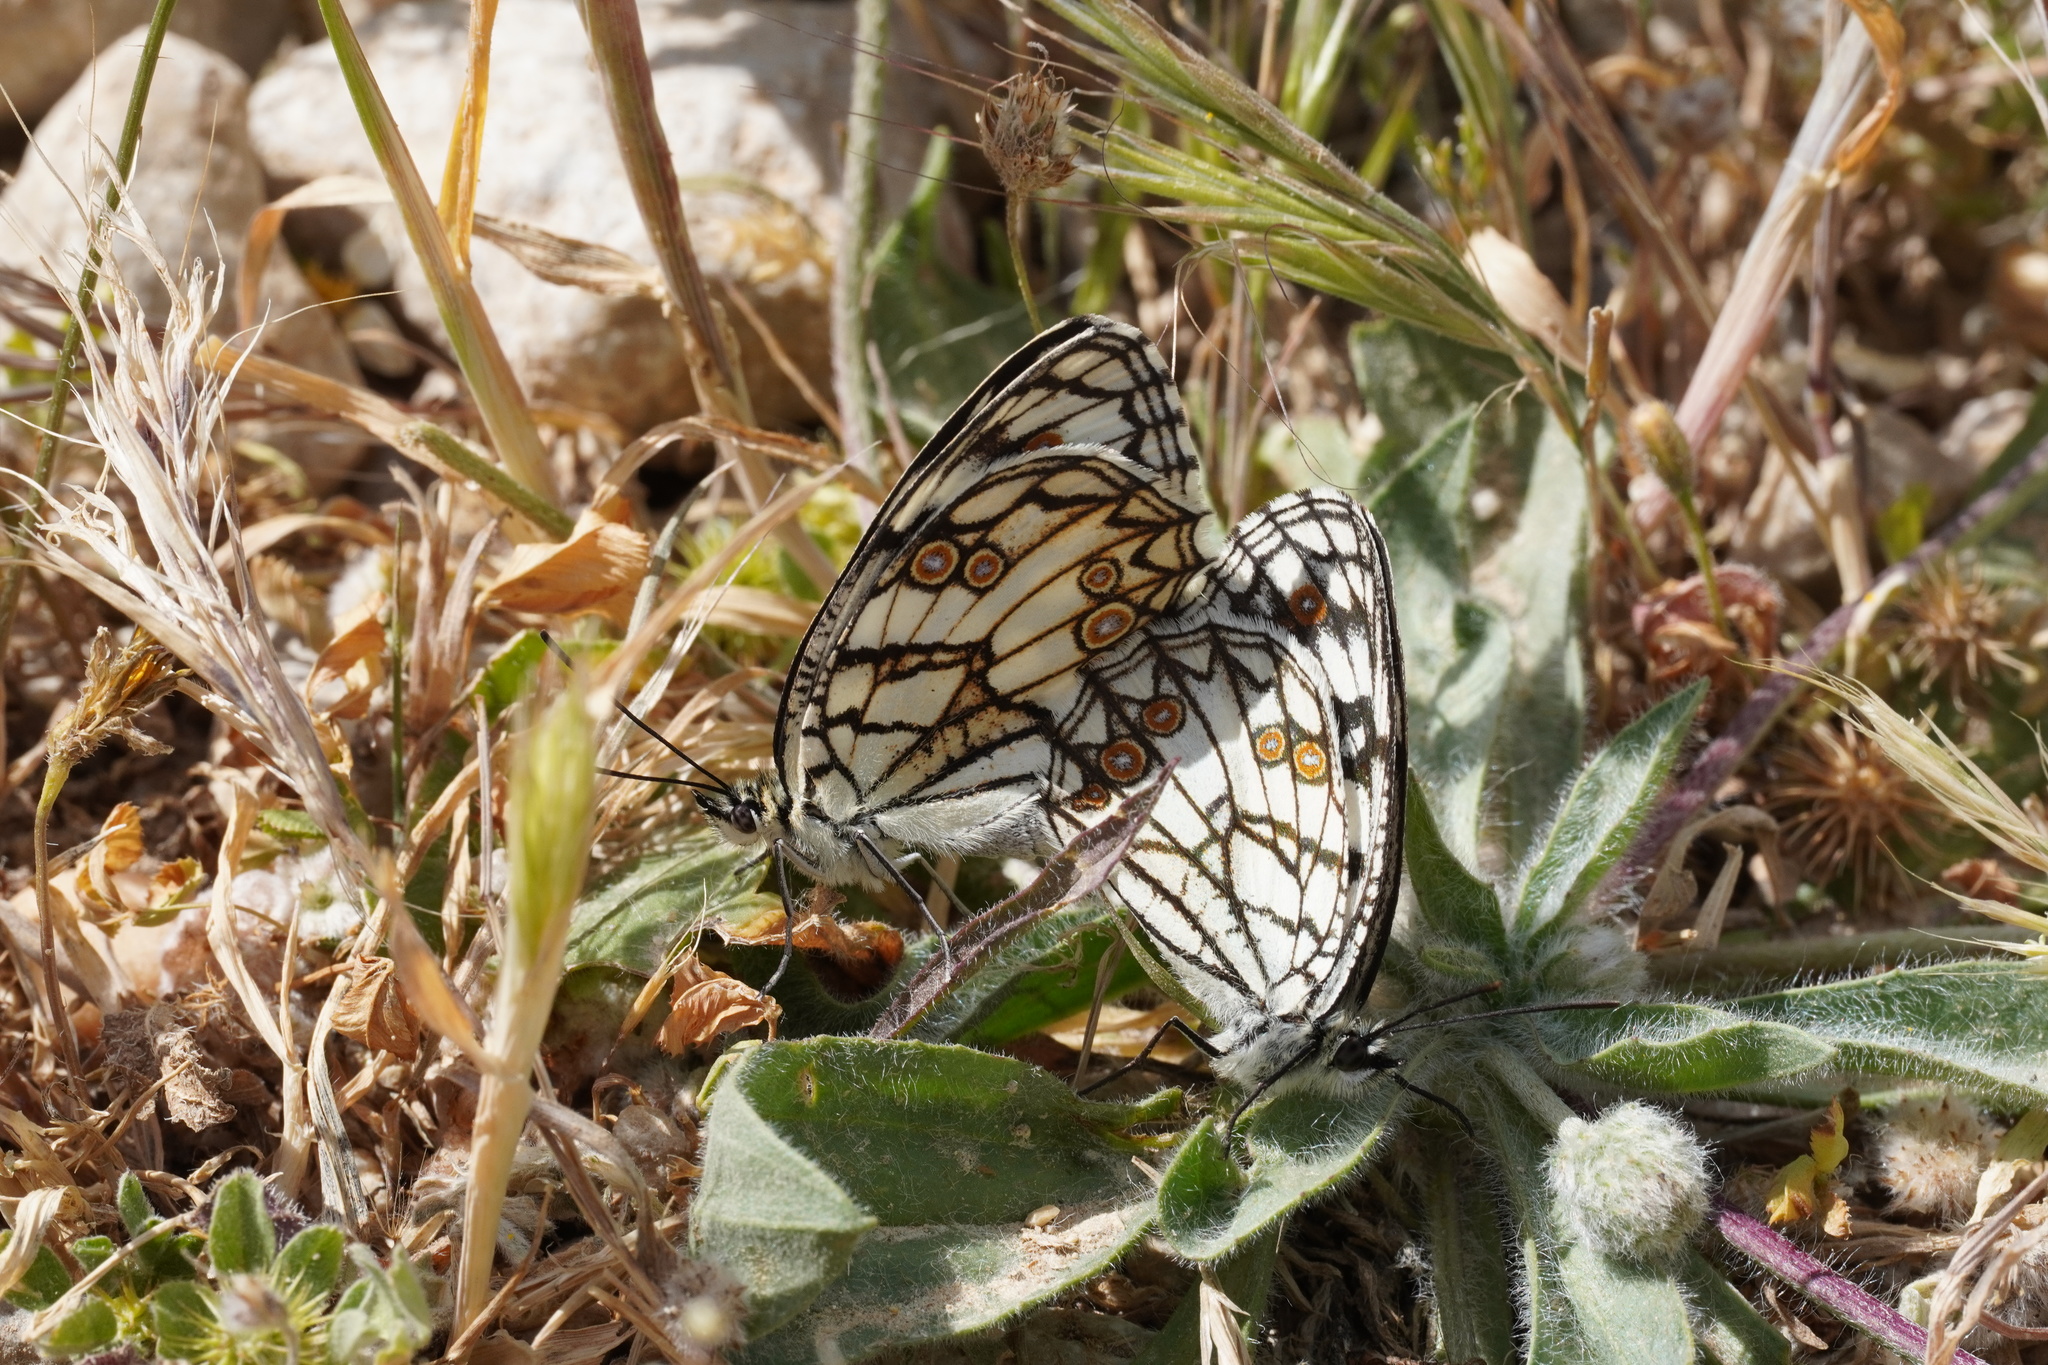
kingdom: Animalia
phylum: Arthropoda
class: Insecta
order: Lepidoptera
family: Nymphalidae
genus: Melanargia
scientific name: Melanargia ines
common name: Spanish marbled white
